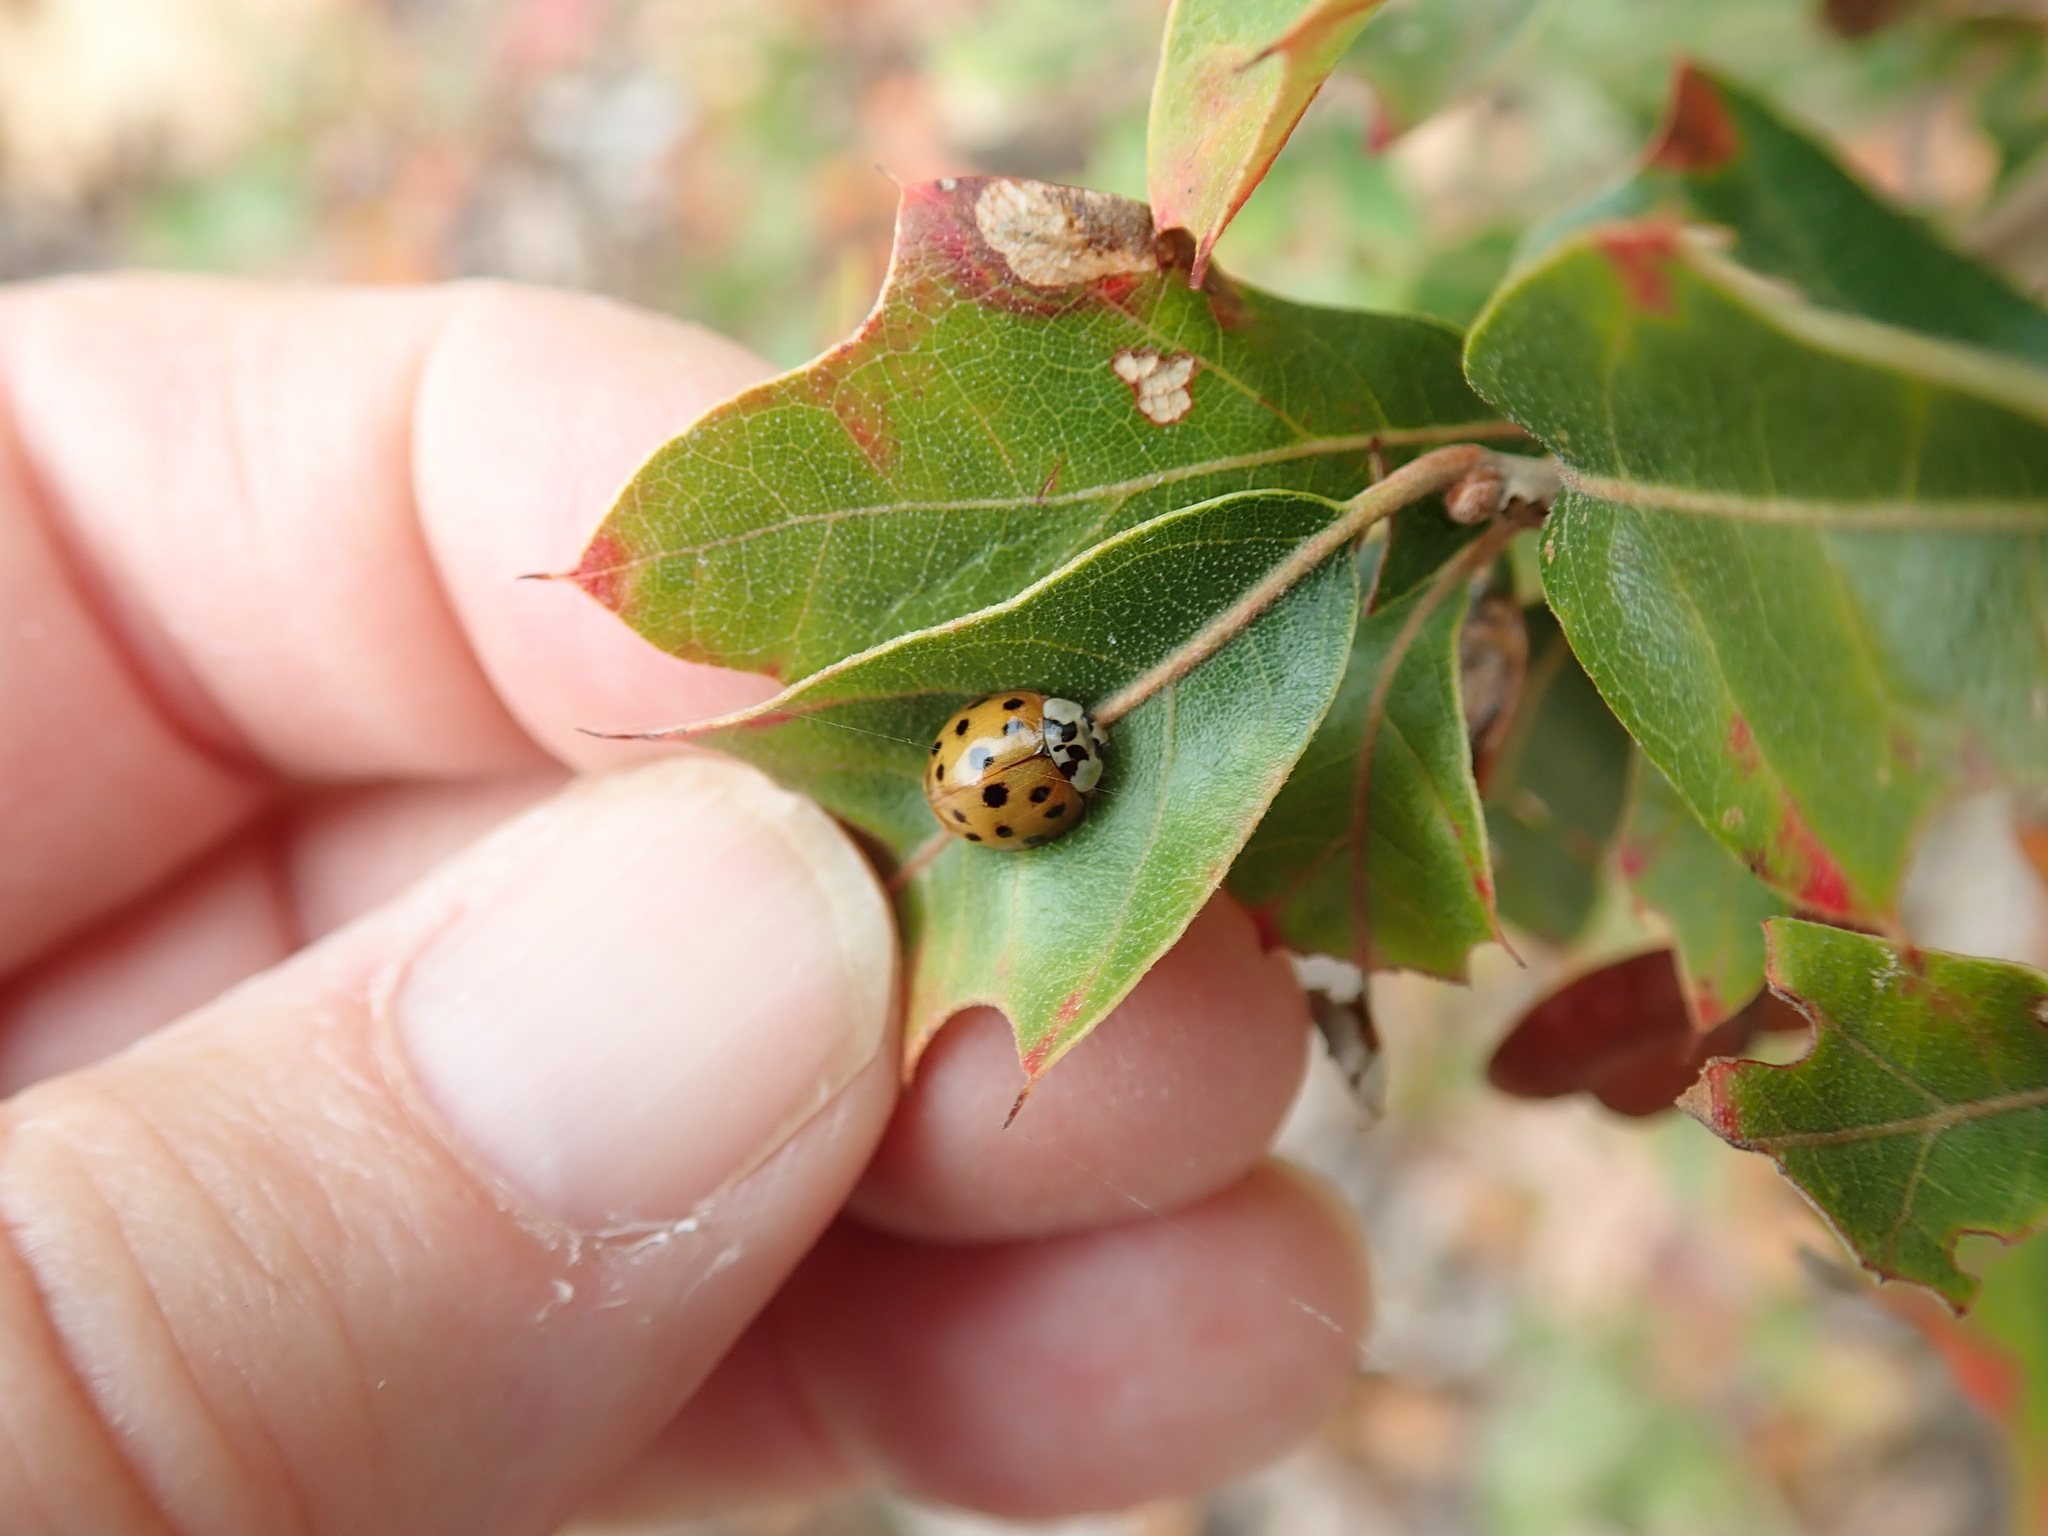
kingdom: Animalia
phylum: Arthropoda
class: Insecta
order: Coleoptera
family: Coccinellidae
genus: Harmonia
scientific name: Harmonia axyridis
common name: Harlequin ladybird
